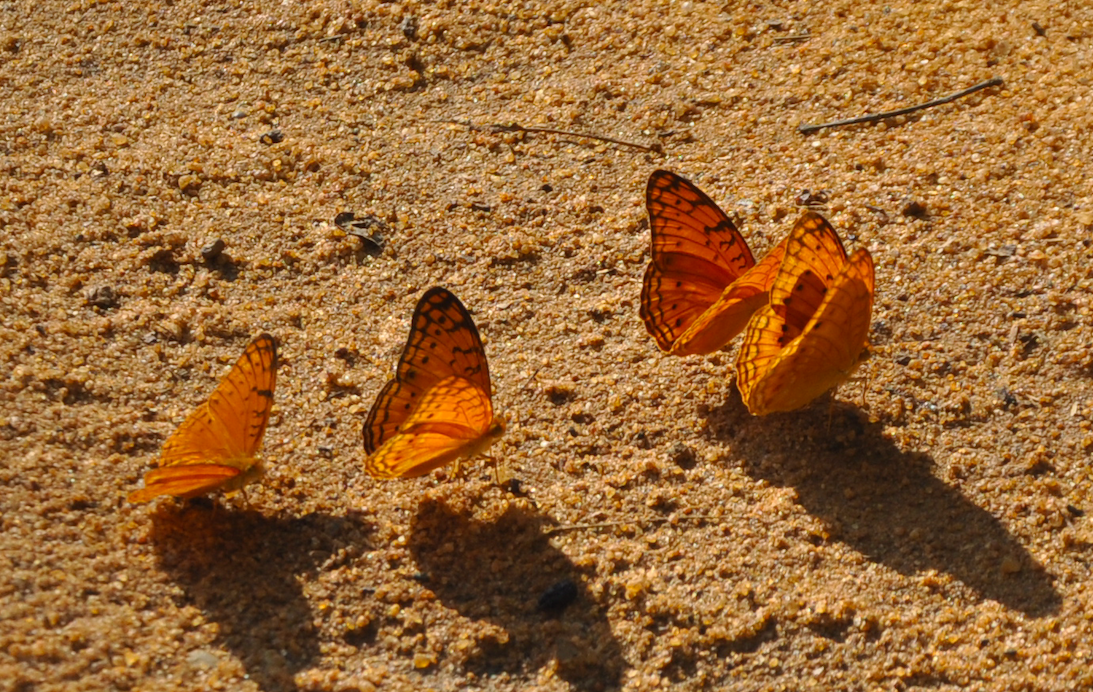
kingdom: Animalia
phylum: Arthropoda
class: Insecta
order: Lepidoptera
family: Nymphalidae
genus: Phalanta
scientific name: Phalanta madagascariensis
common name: Madagascar leopard
